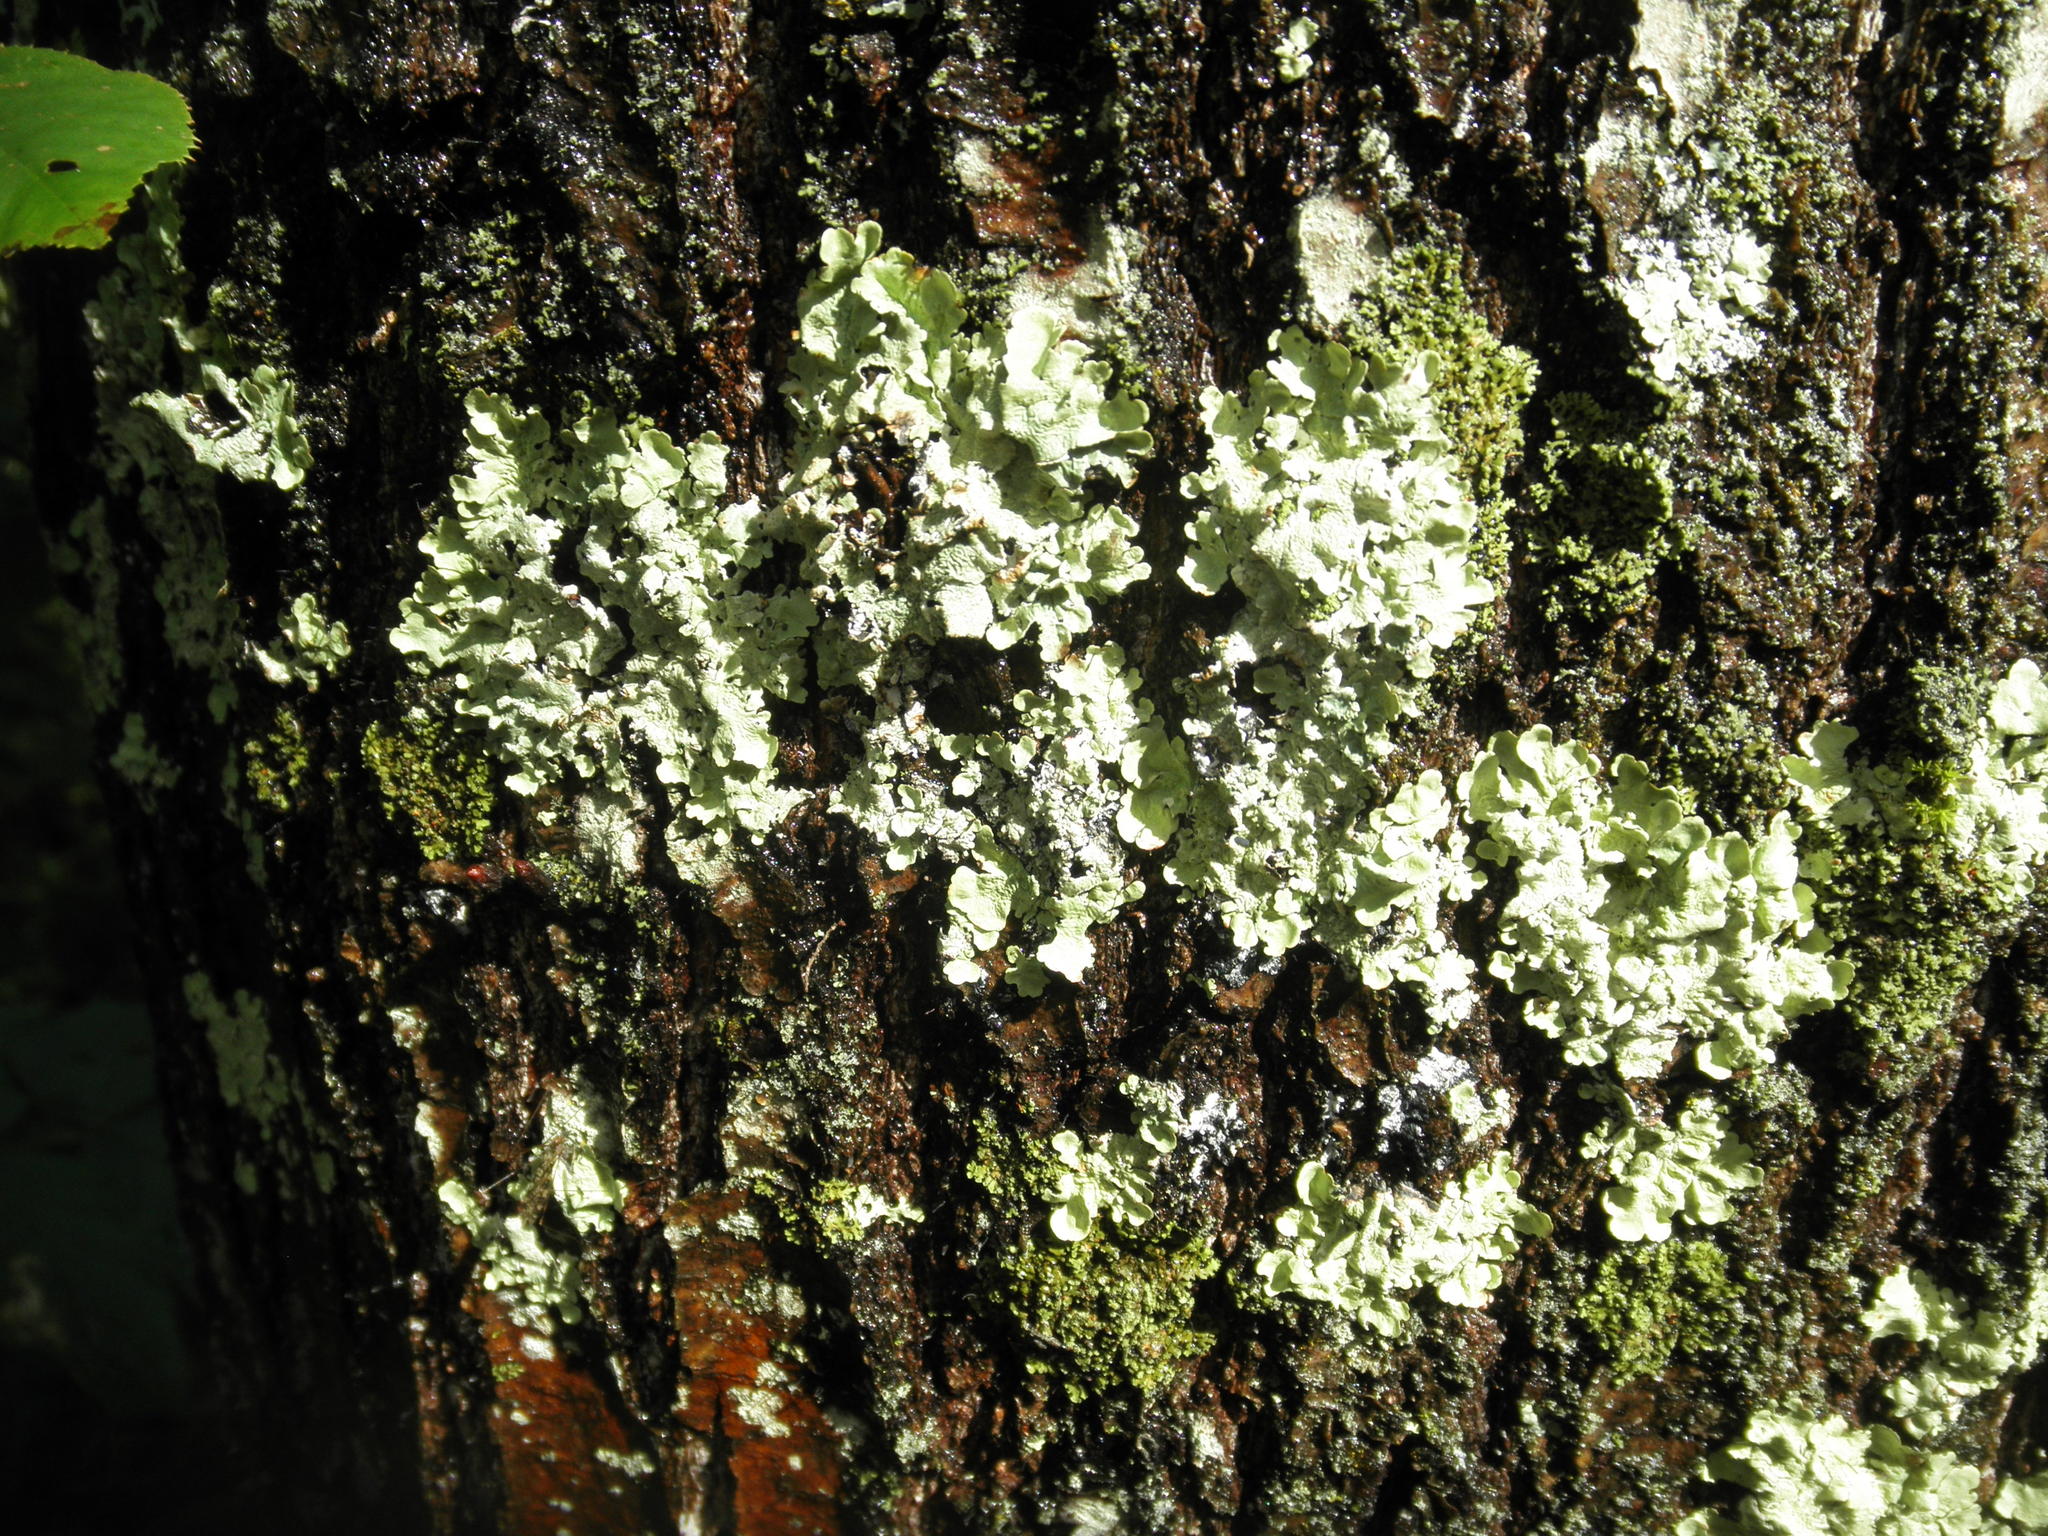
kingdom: Fungi
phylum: Ascomycota
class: Lecanoromycetes
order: Lecanorales
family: Parmeliaceae
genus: Flavoparmelia
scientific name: Flavoparmelia caperata
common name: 40-mile per hour lichen
